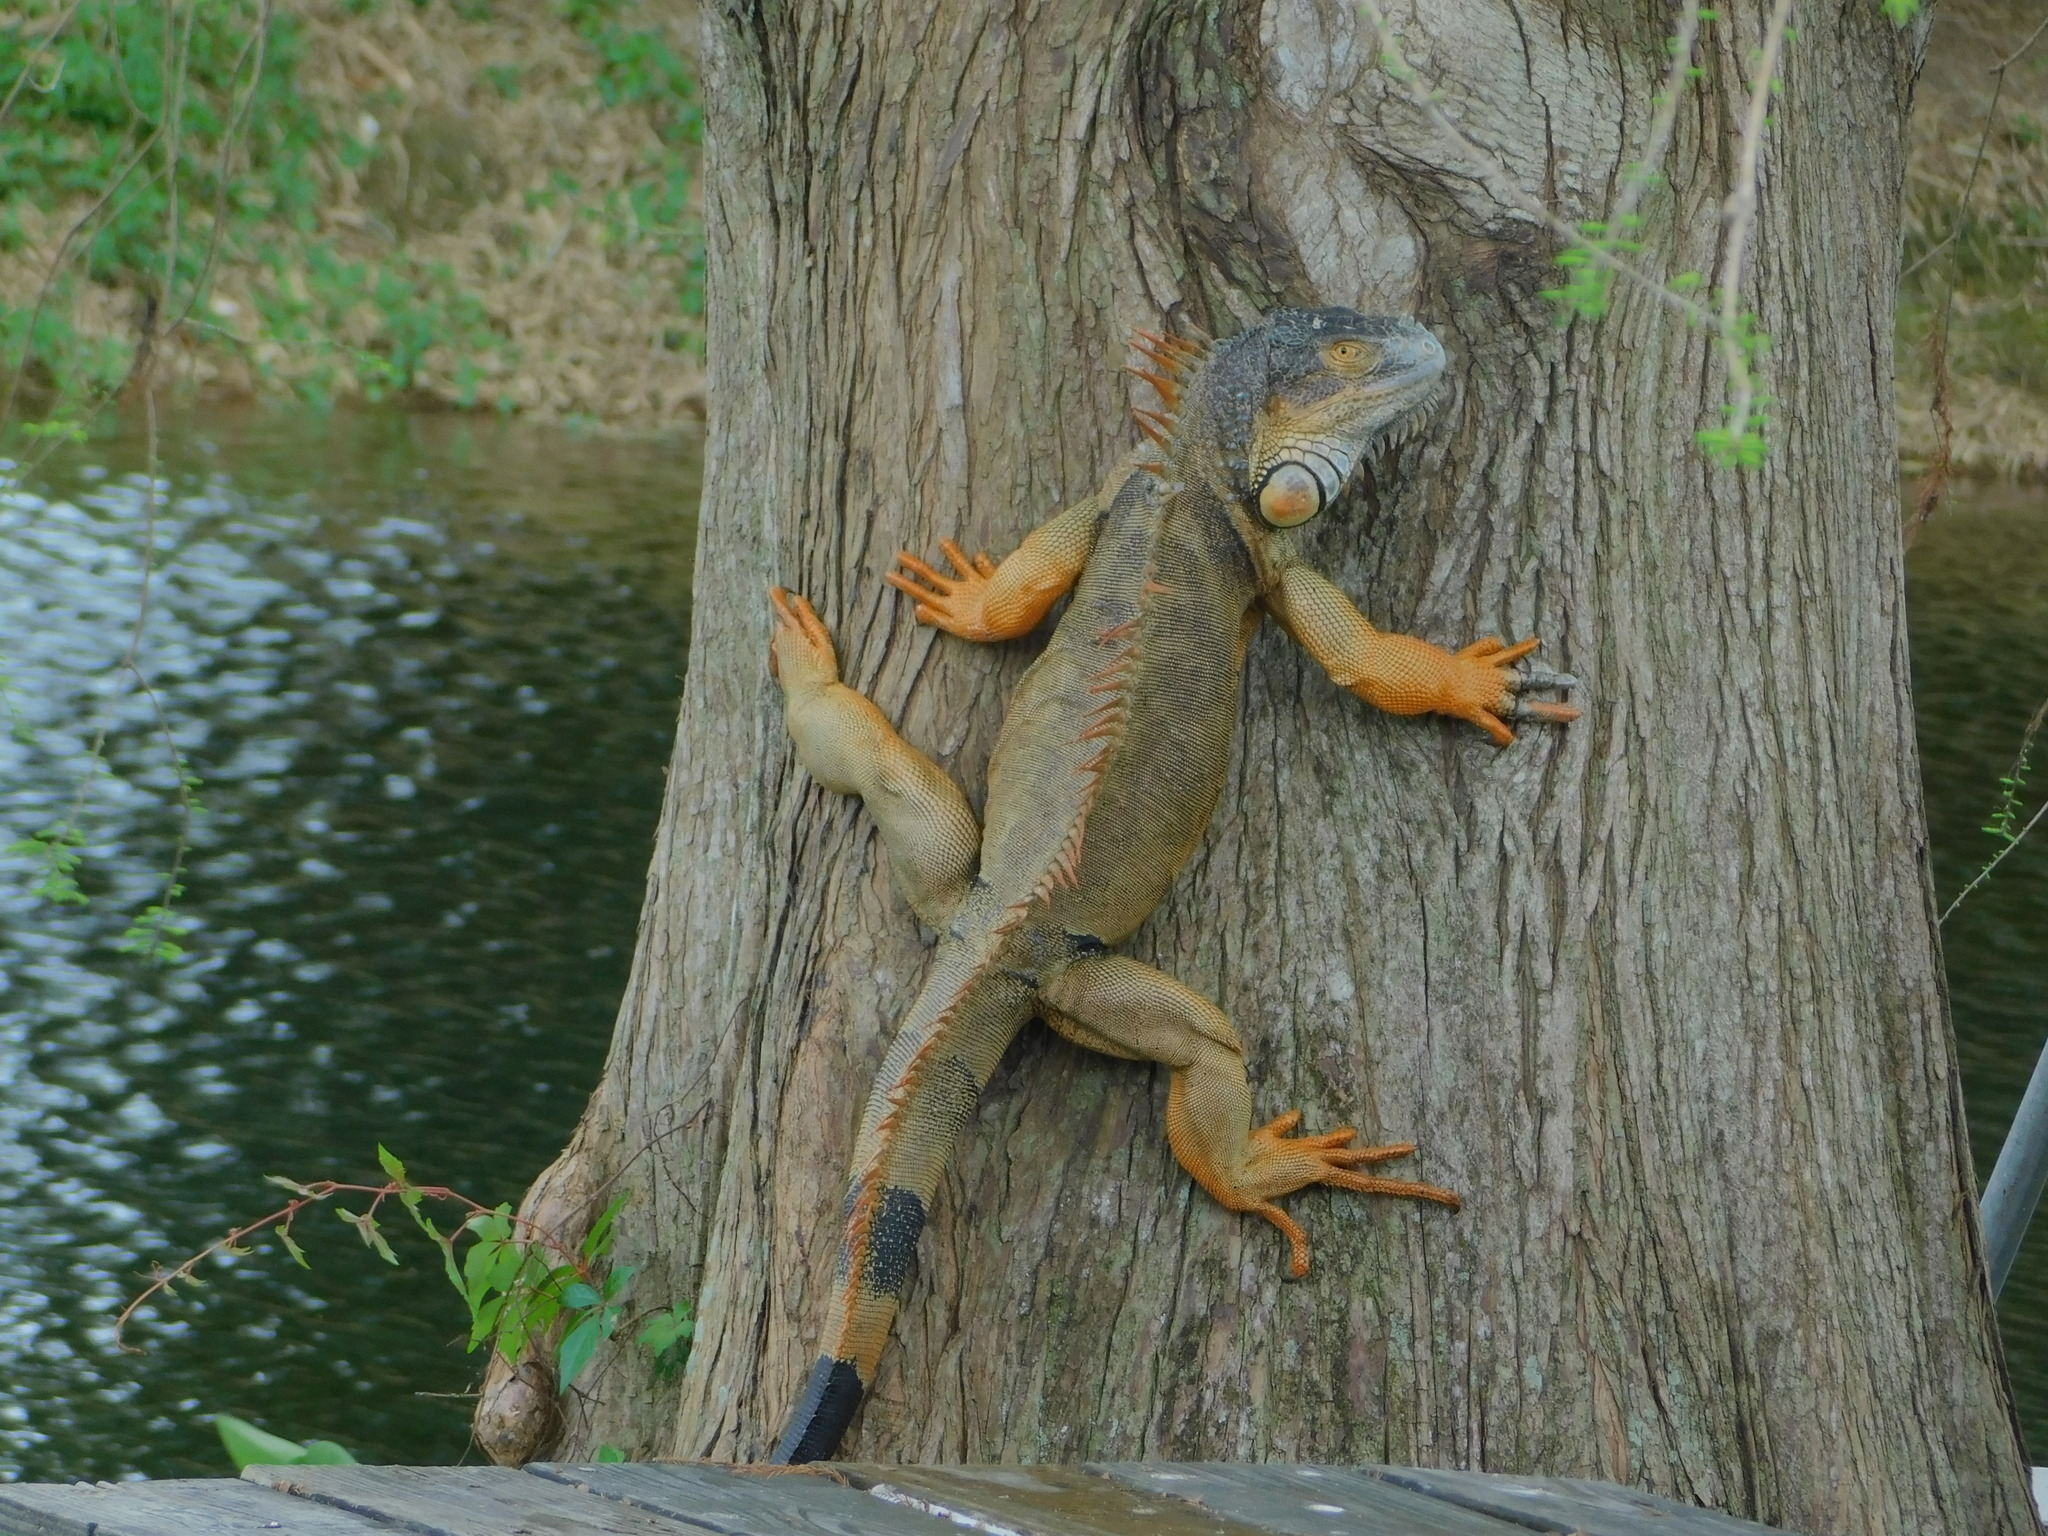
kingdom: Animalia
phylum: Chordata
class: Squamata
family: Iguanidae
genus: Iguana
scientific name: Iguana iguana
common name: Green iguana
